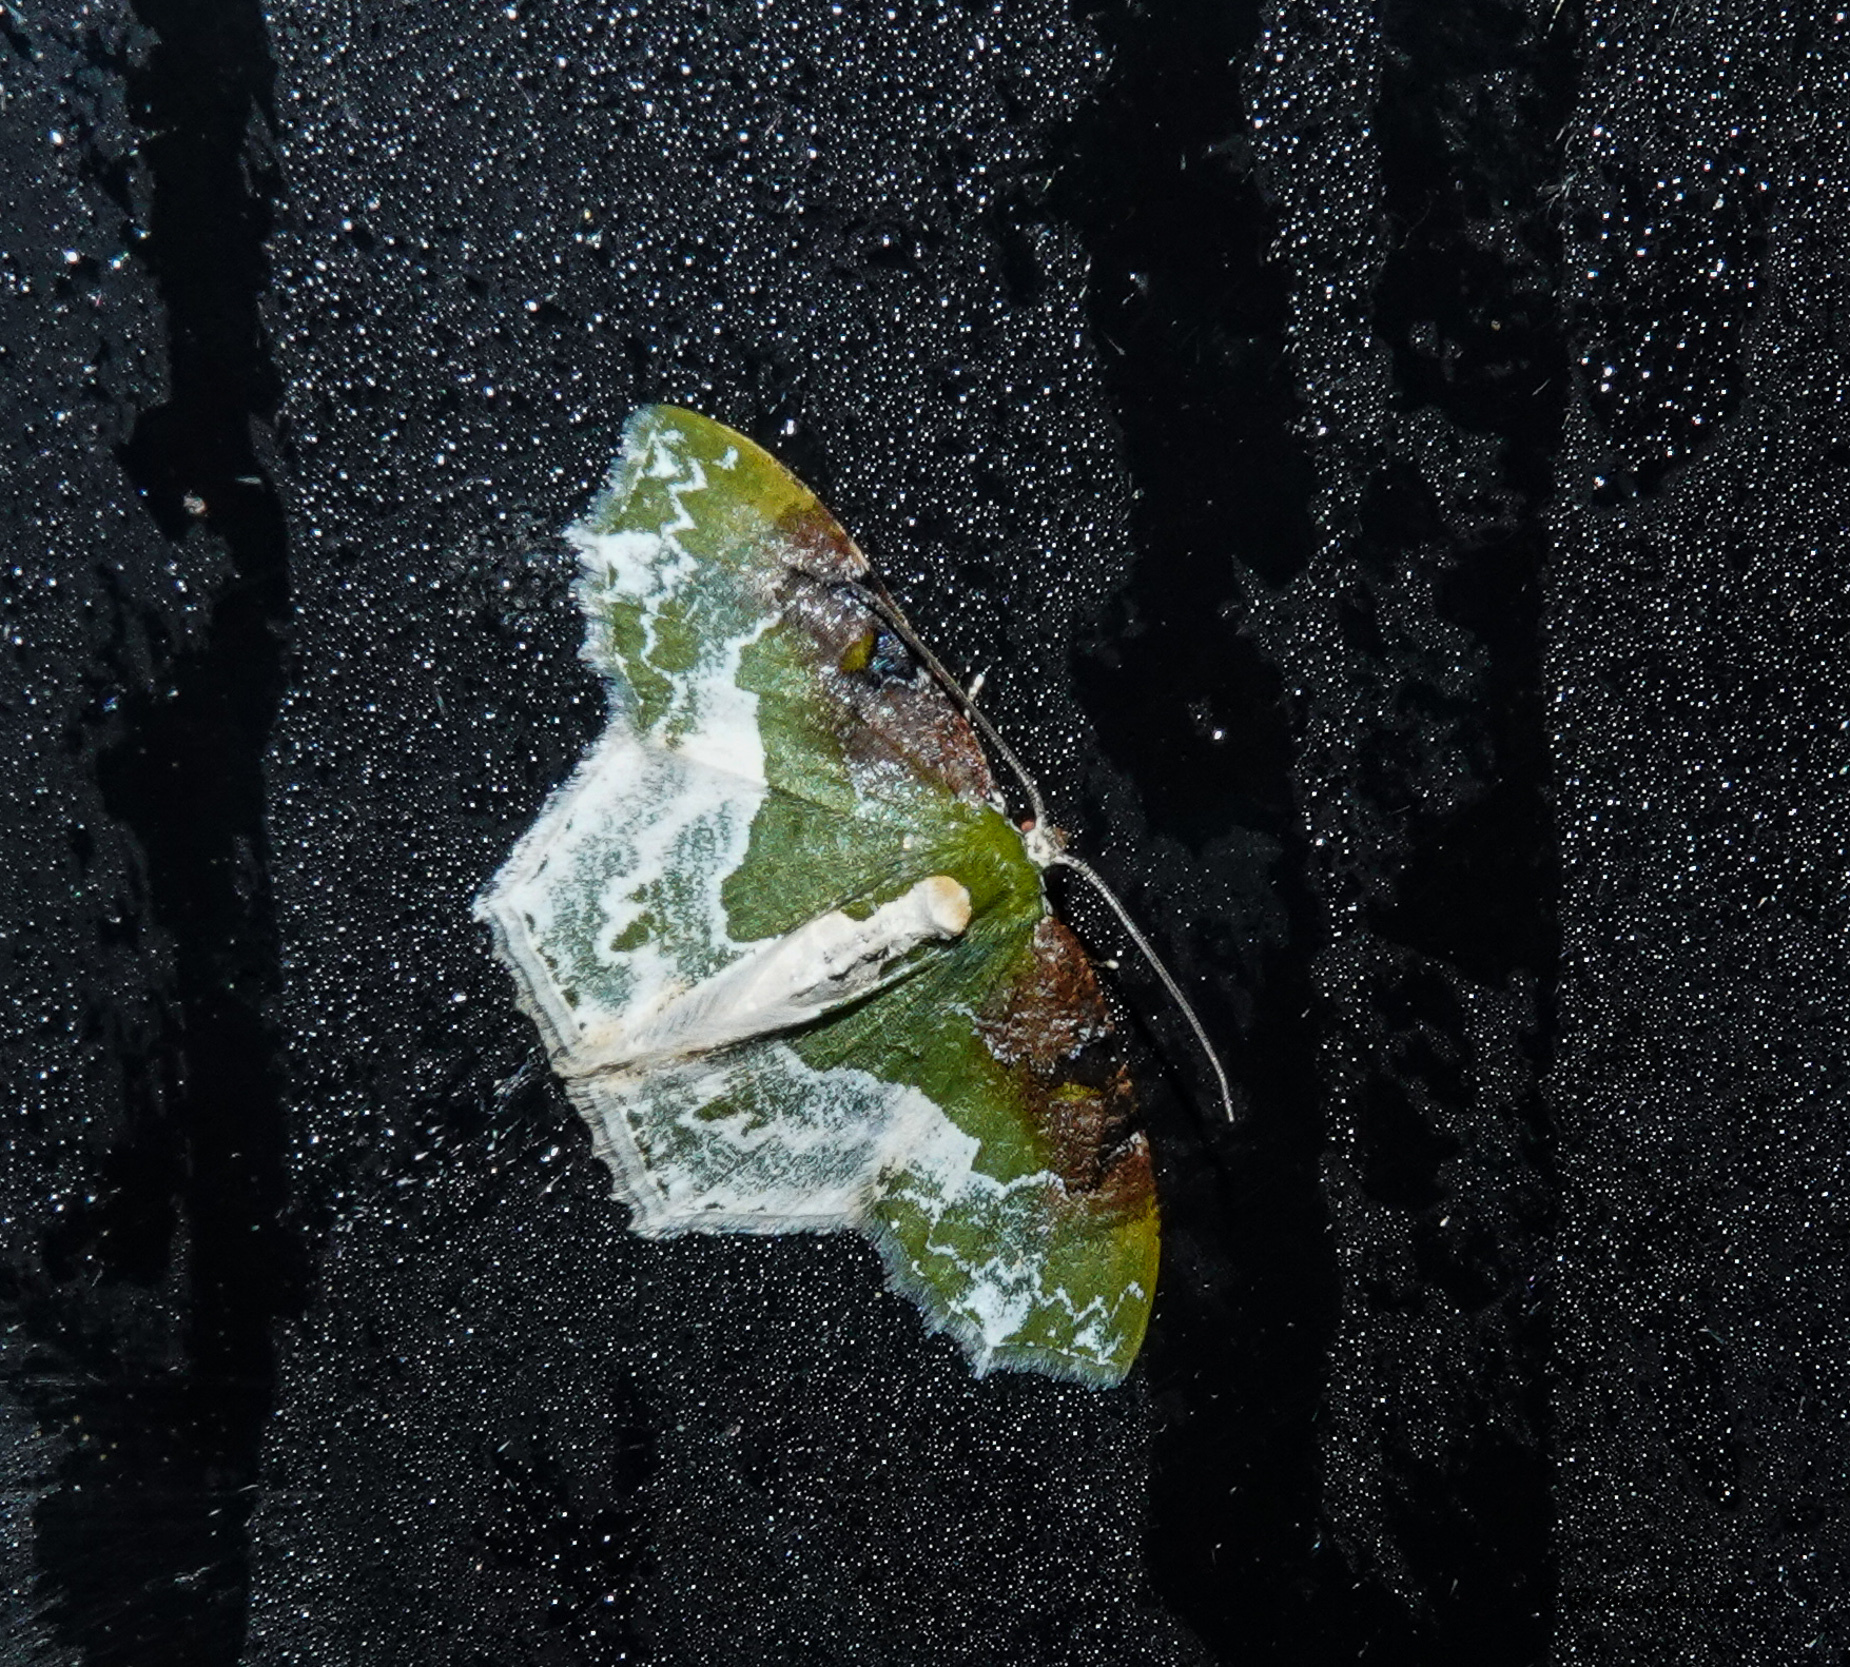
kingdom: Animalia
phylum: Arthropoda
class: Insecta
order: Lepidoptera
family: Geometridae
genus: Eucyclodes
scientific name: Eucyclodes semialba
